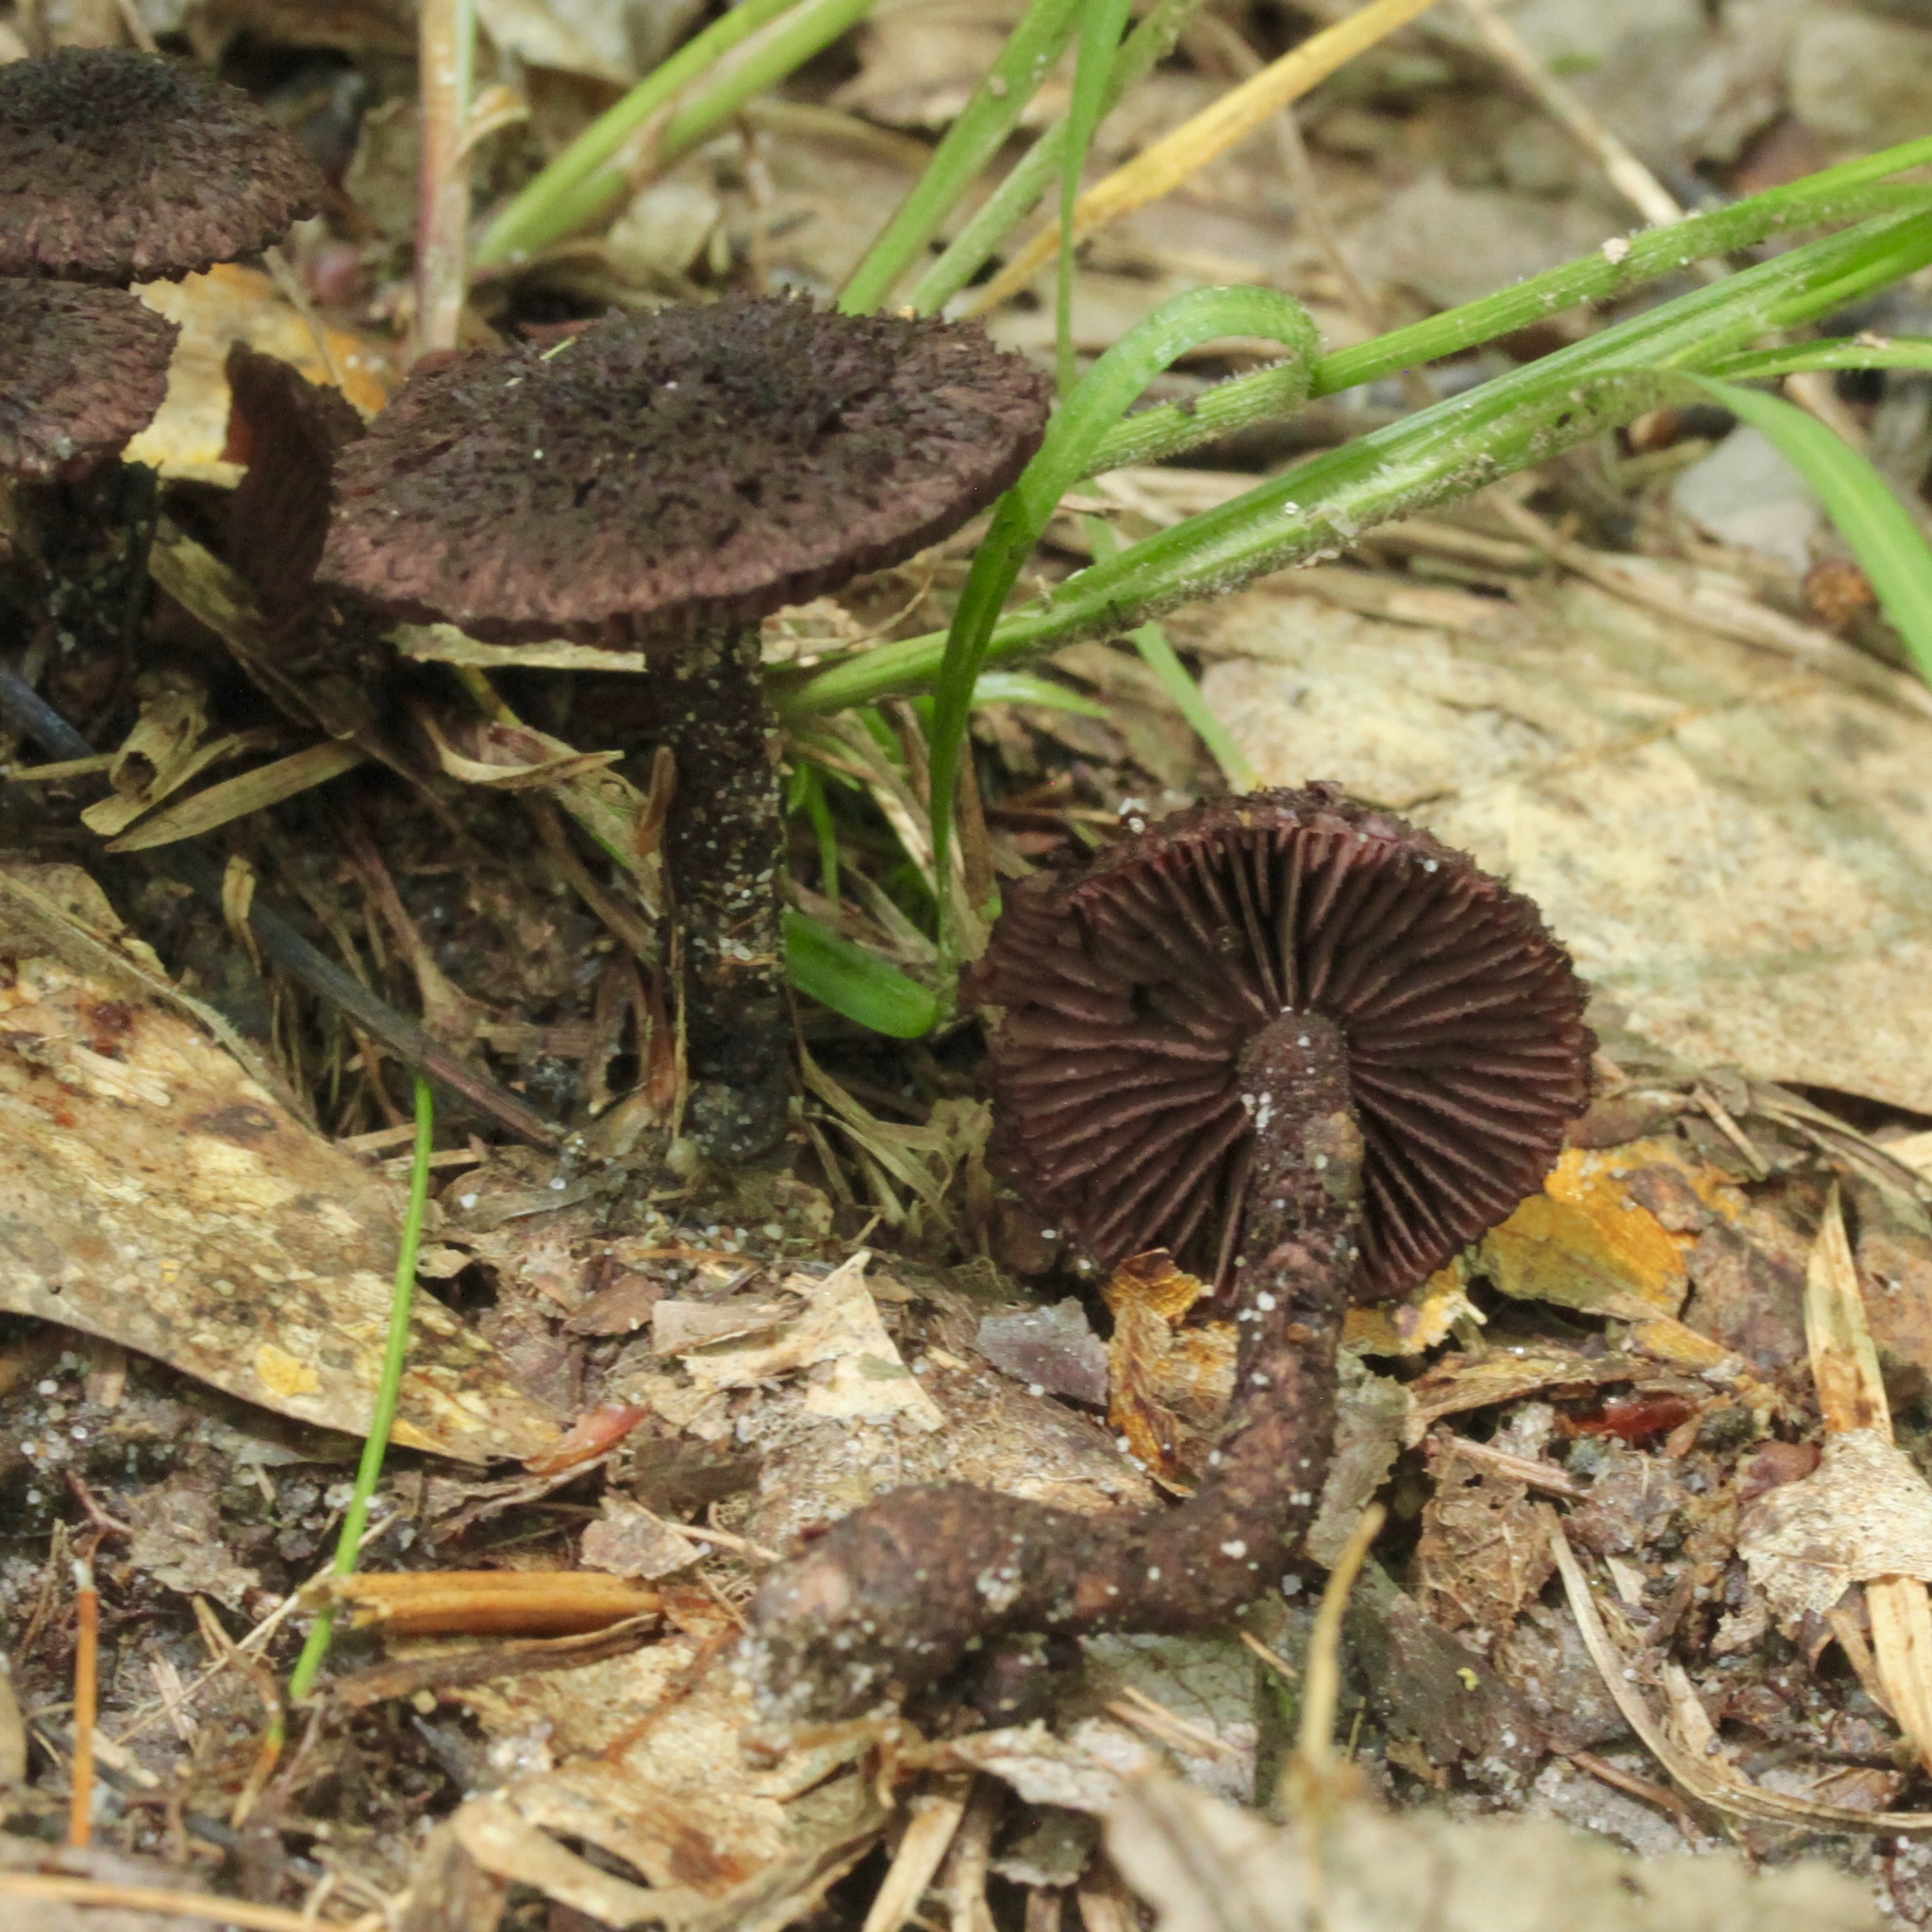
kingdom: Fungi
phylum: Basidiomycota
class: Agaricomycetes
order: Agaricales
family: Inocybaceae
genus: Inocybe
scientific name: Inocybe tahquamenonensis
